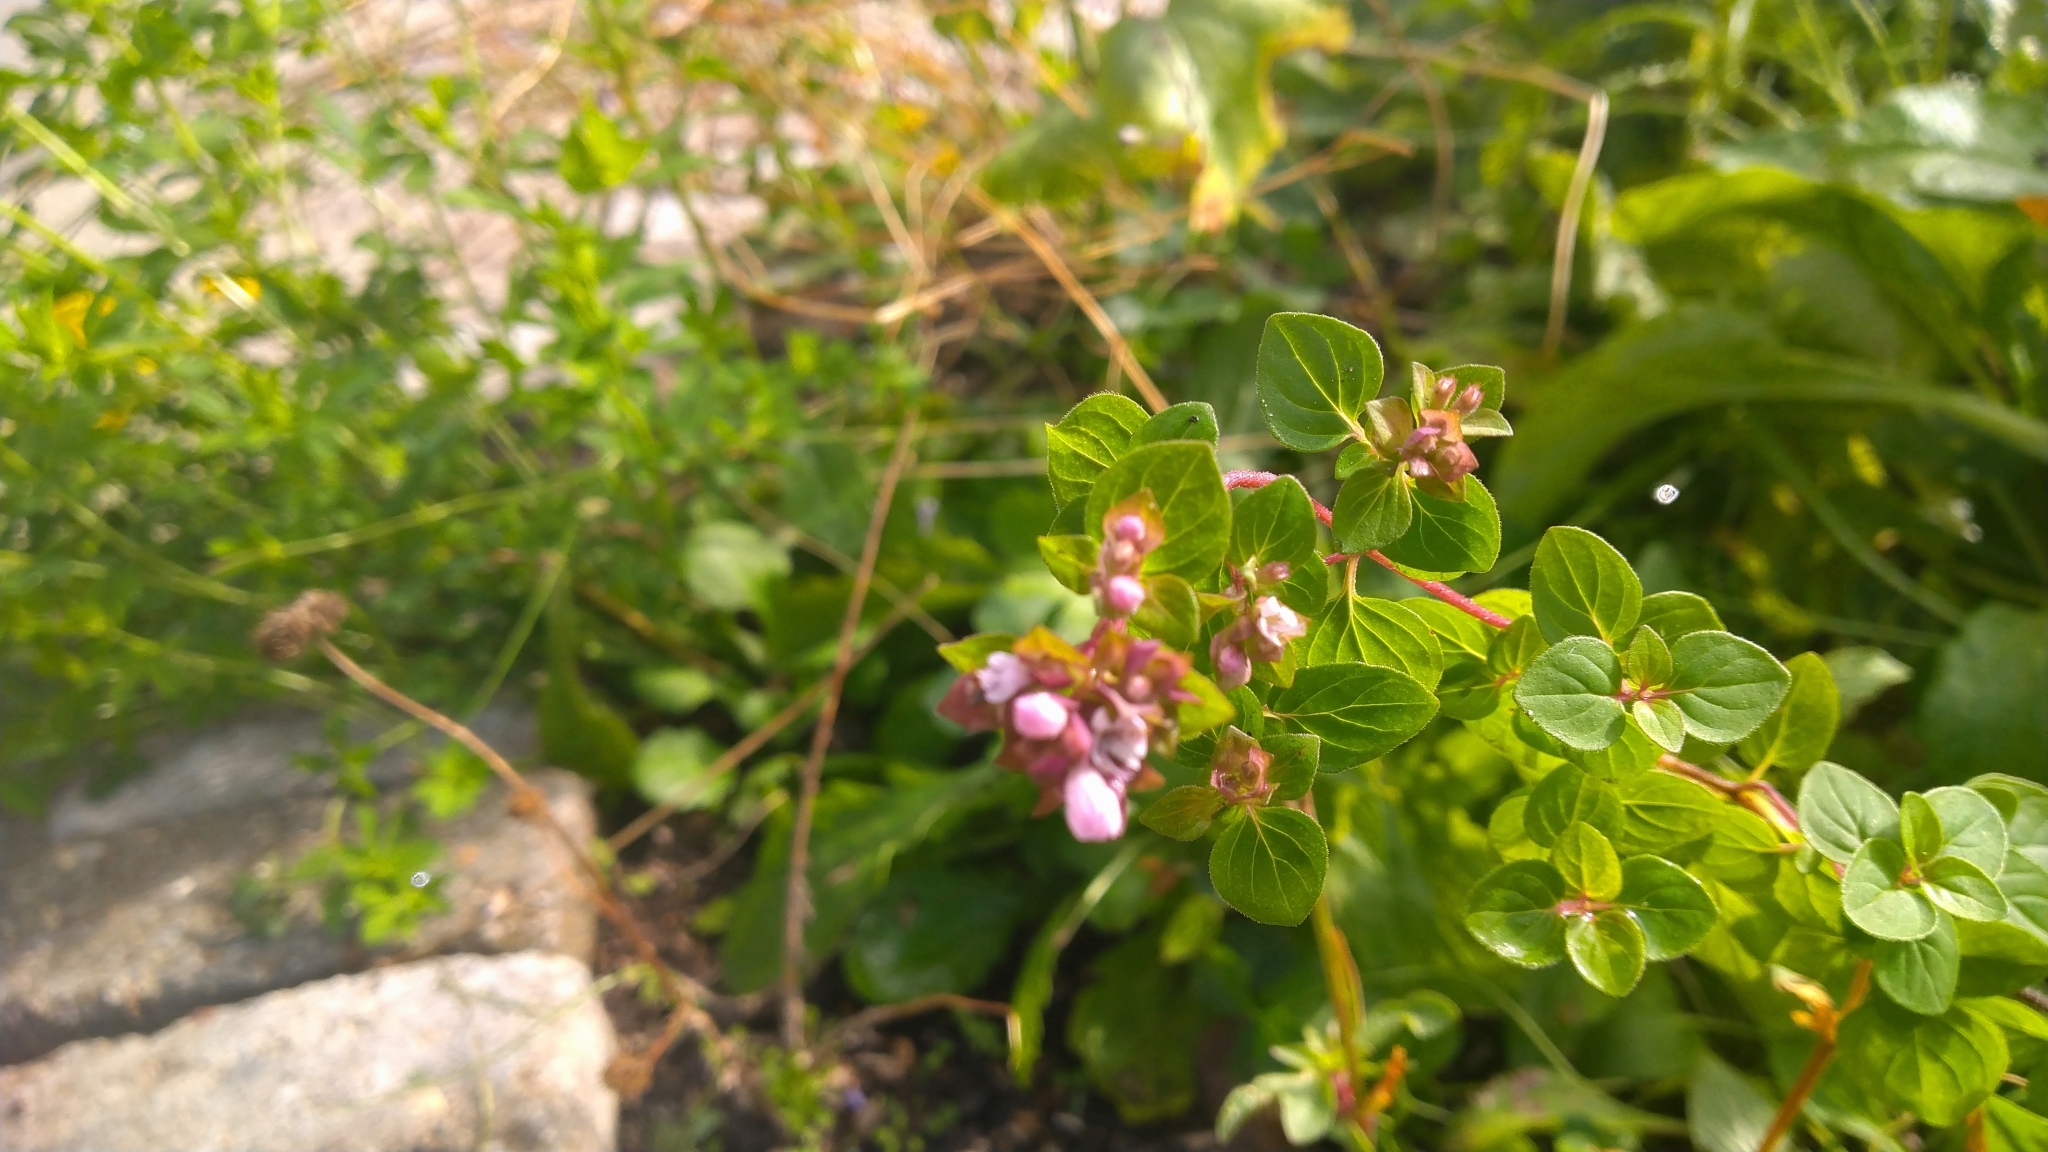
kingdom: Plantae
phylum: Tracheophyta
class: Magnoliopsida
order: Lamiales
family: Lamiaceae
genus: Origanum
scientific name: Origanum vulgare
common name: Wild marjoram
